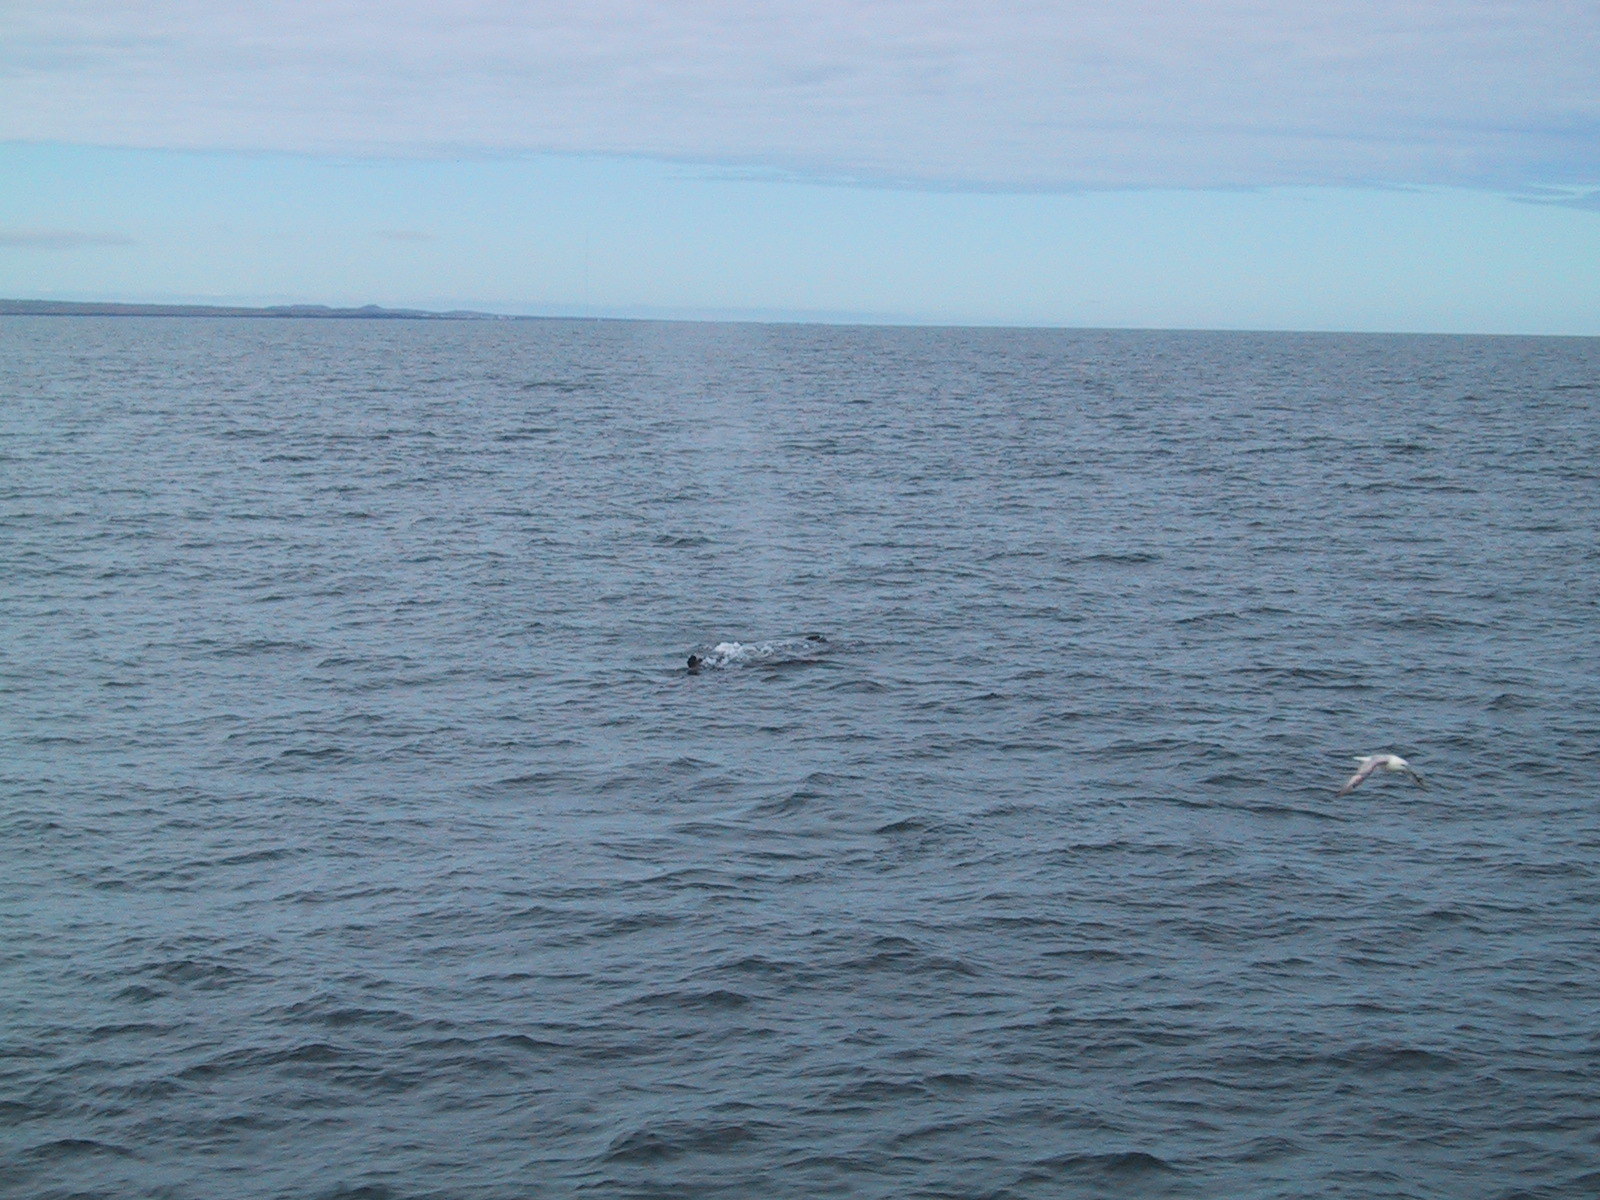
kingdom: Animalia
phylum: Chordata
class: Aves
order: Procellariiformes
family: Procellariidae
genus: Fulmarus
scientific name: Fulmarus glacialis
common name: Northern fulmar
